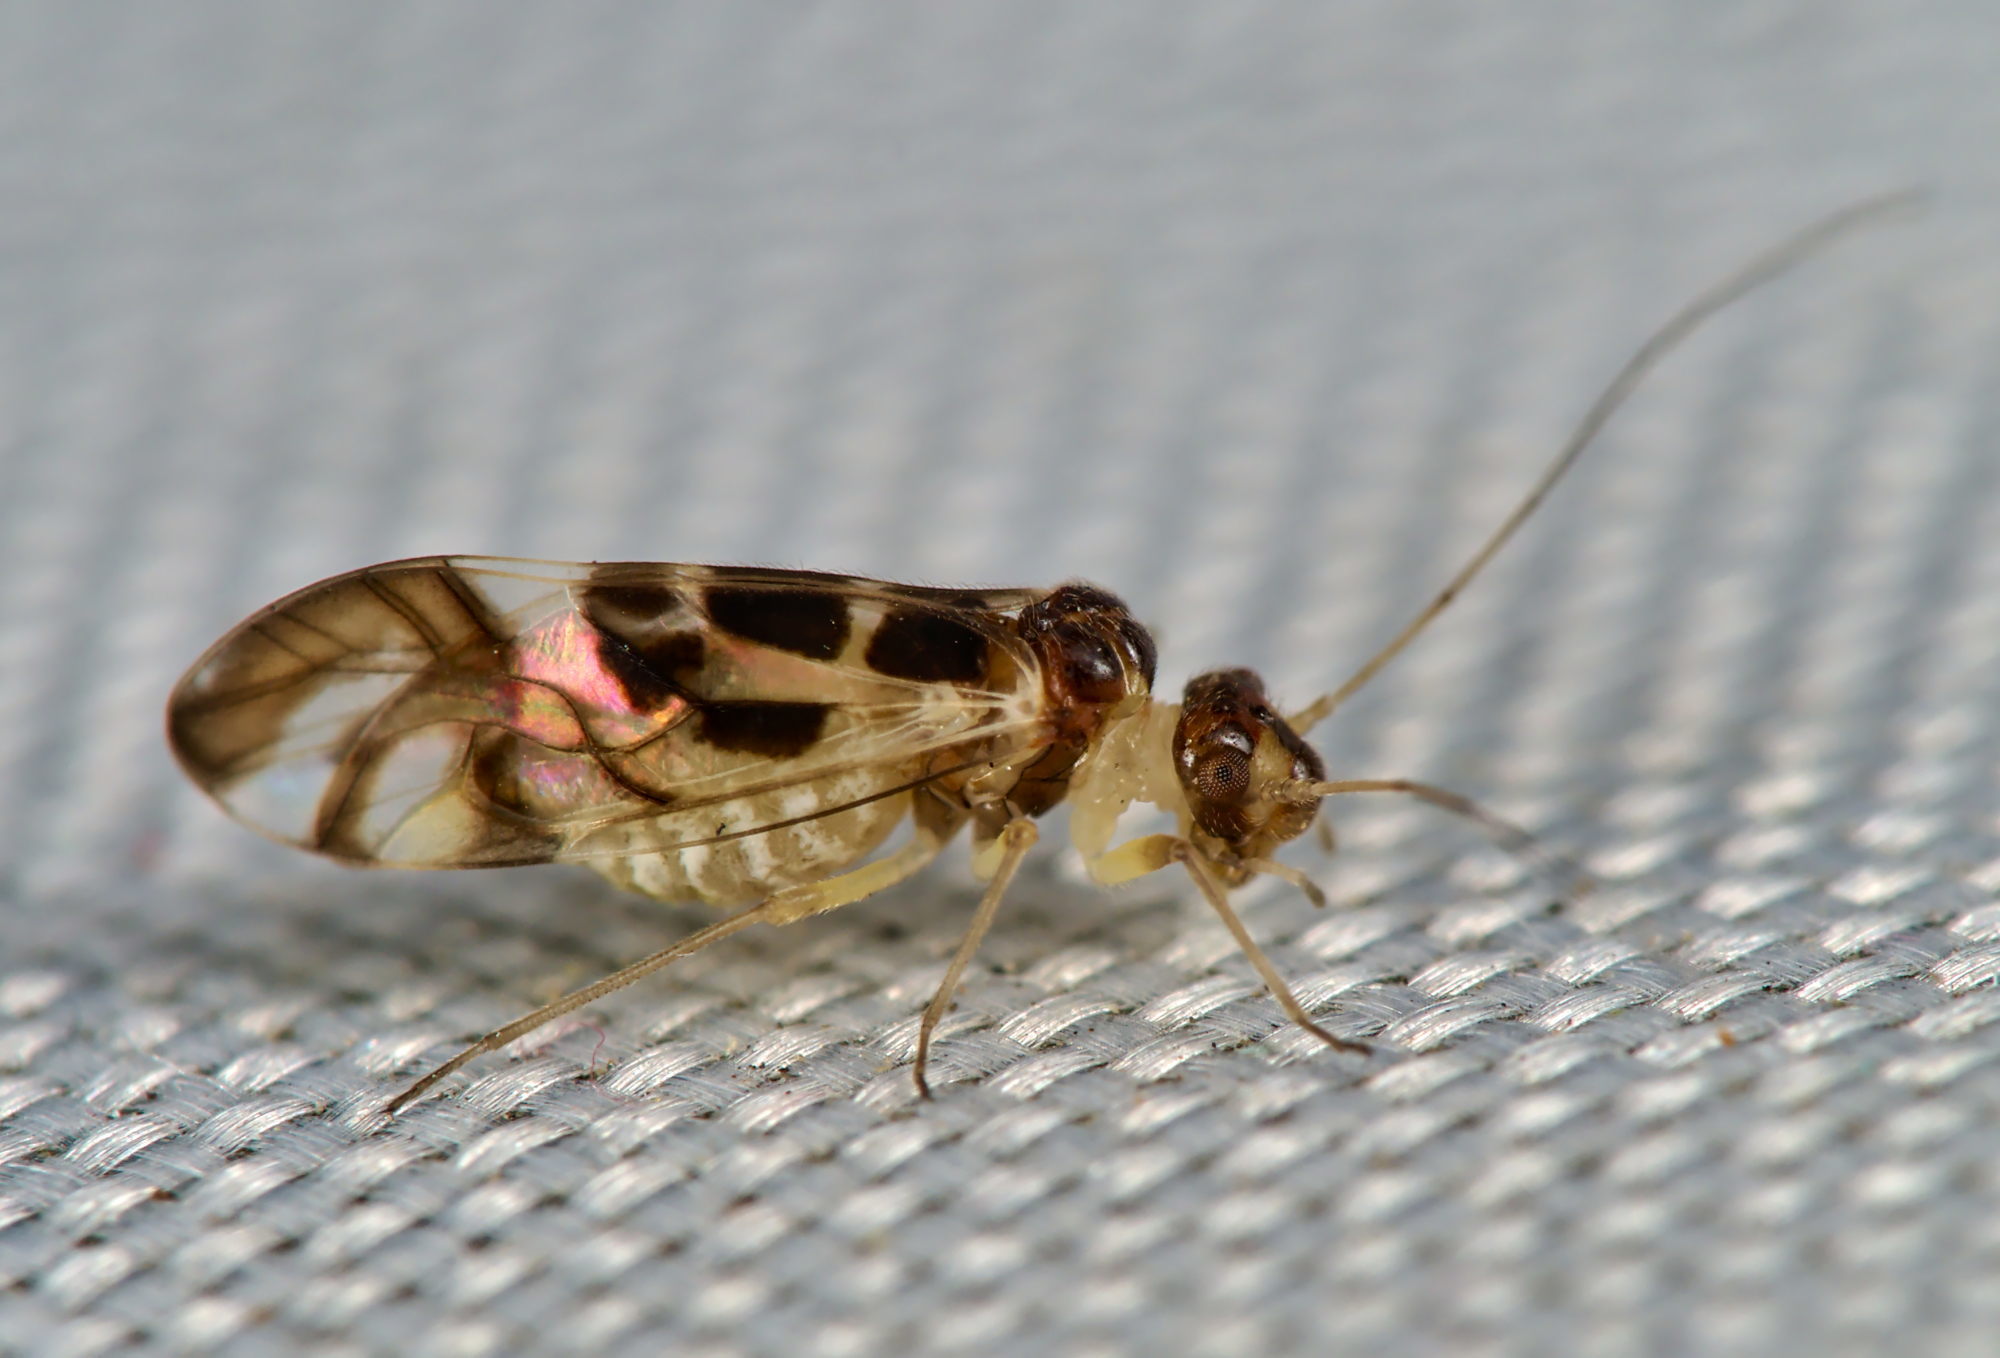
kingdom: Animalia
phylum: Arthropoda
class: Insecta
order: Psocodea
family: Stenopsocidae
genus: Graphopsocus
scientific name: Graphopsocus cruciatus
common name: Lizard bark louse
